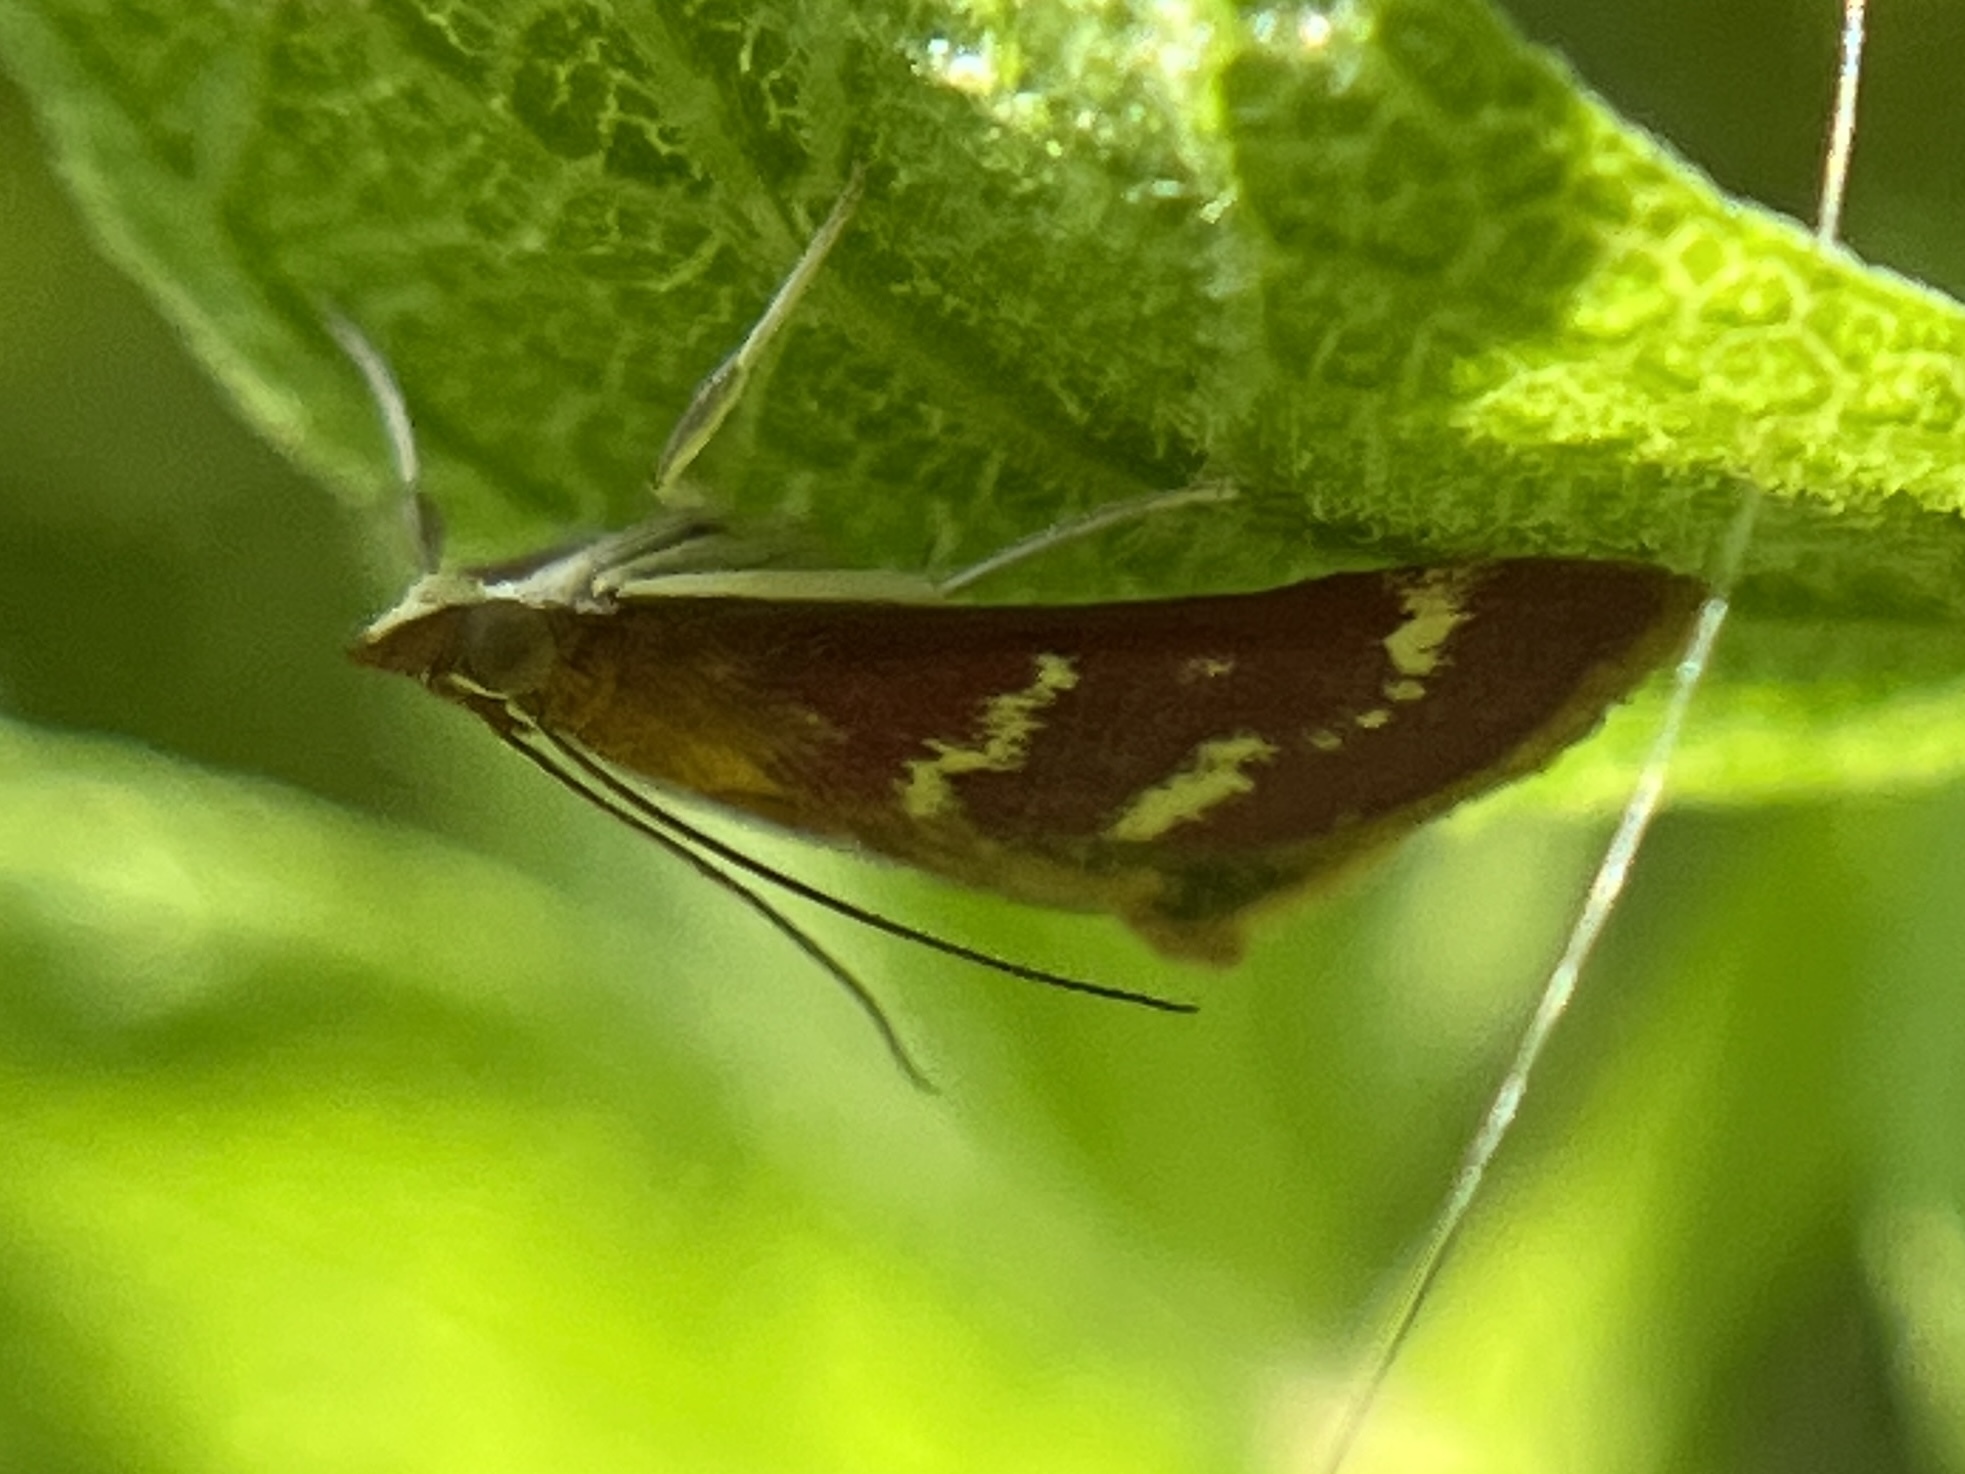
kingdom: Animalia
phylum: Arthropoda
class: Insecta
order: Lepidoptera
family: Crambidae
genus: Pyrausta
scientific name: Pyrausta signatalis
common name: Raspberry pyrausta moth
